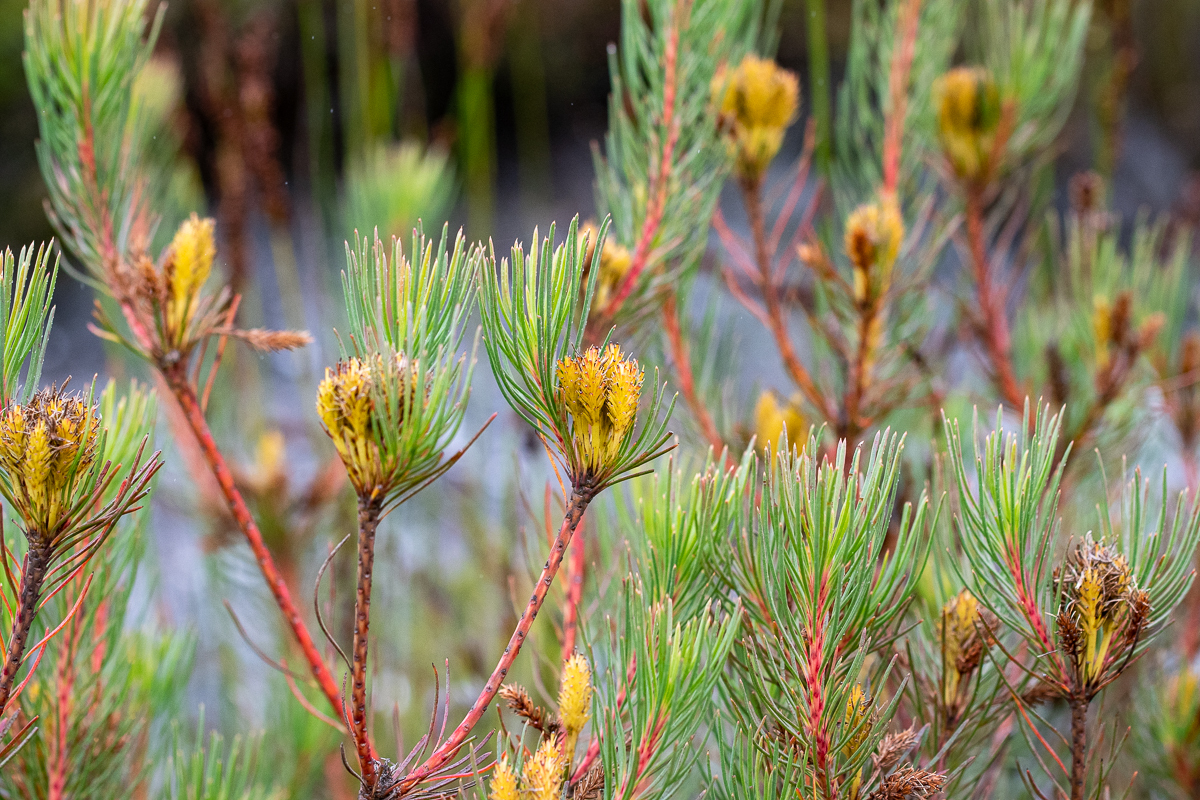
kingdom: Plantae
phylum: Tracheophyta
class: Magnoliopsida
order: Proteales
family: Proteaceae
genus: Aulax
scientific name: Aulax cancellata
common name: Channel-leaf featherbush
